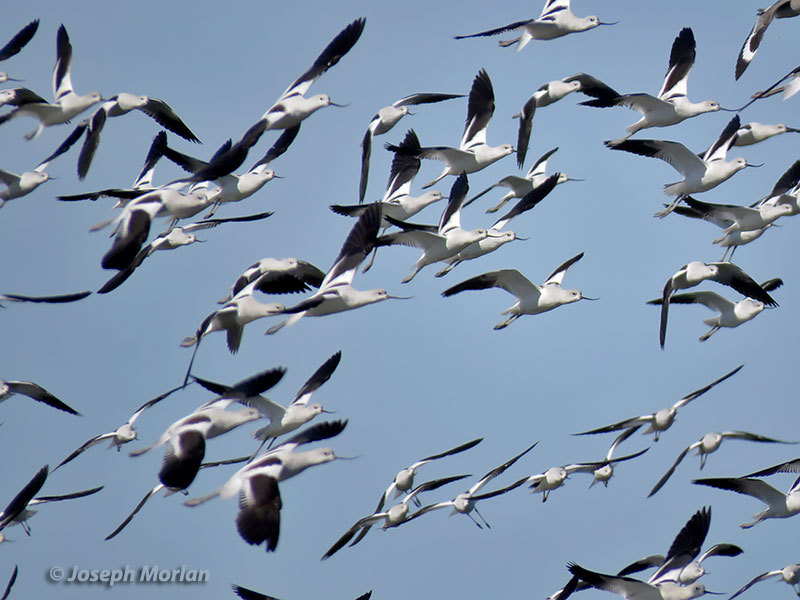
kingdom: Animalia
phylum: Chordata
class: Aves
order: Charadriiformes
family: Recurvirostridae
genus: Recurvirostra
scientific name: Recurvirostra americana
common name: American avocet
